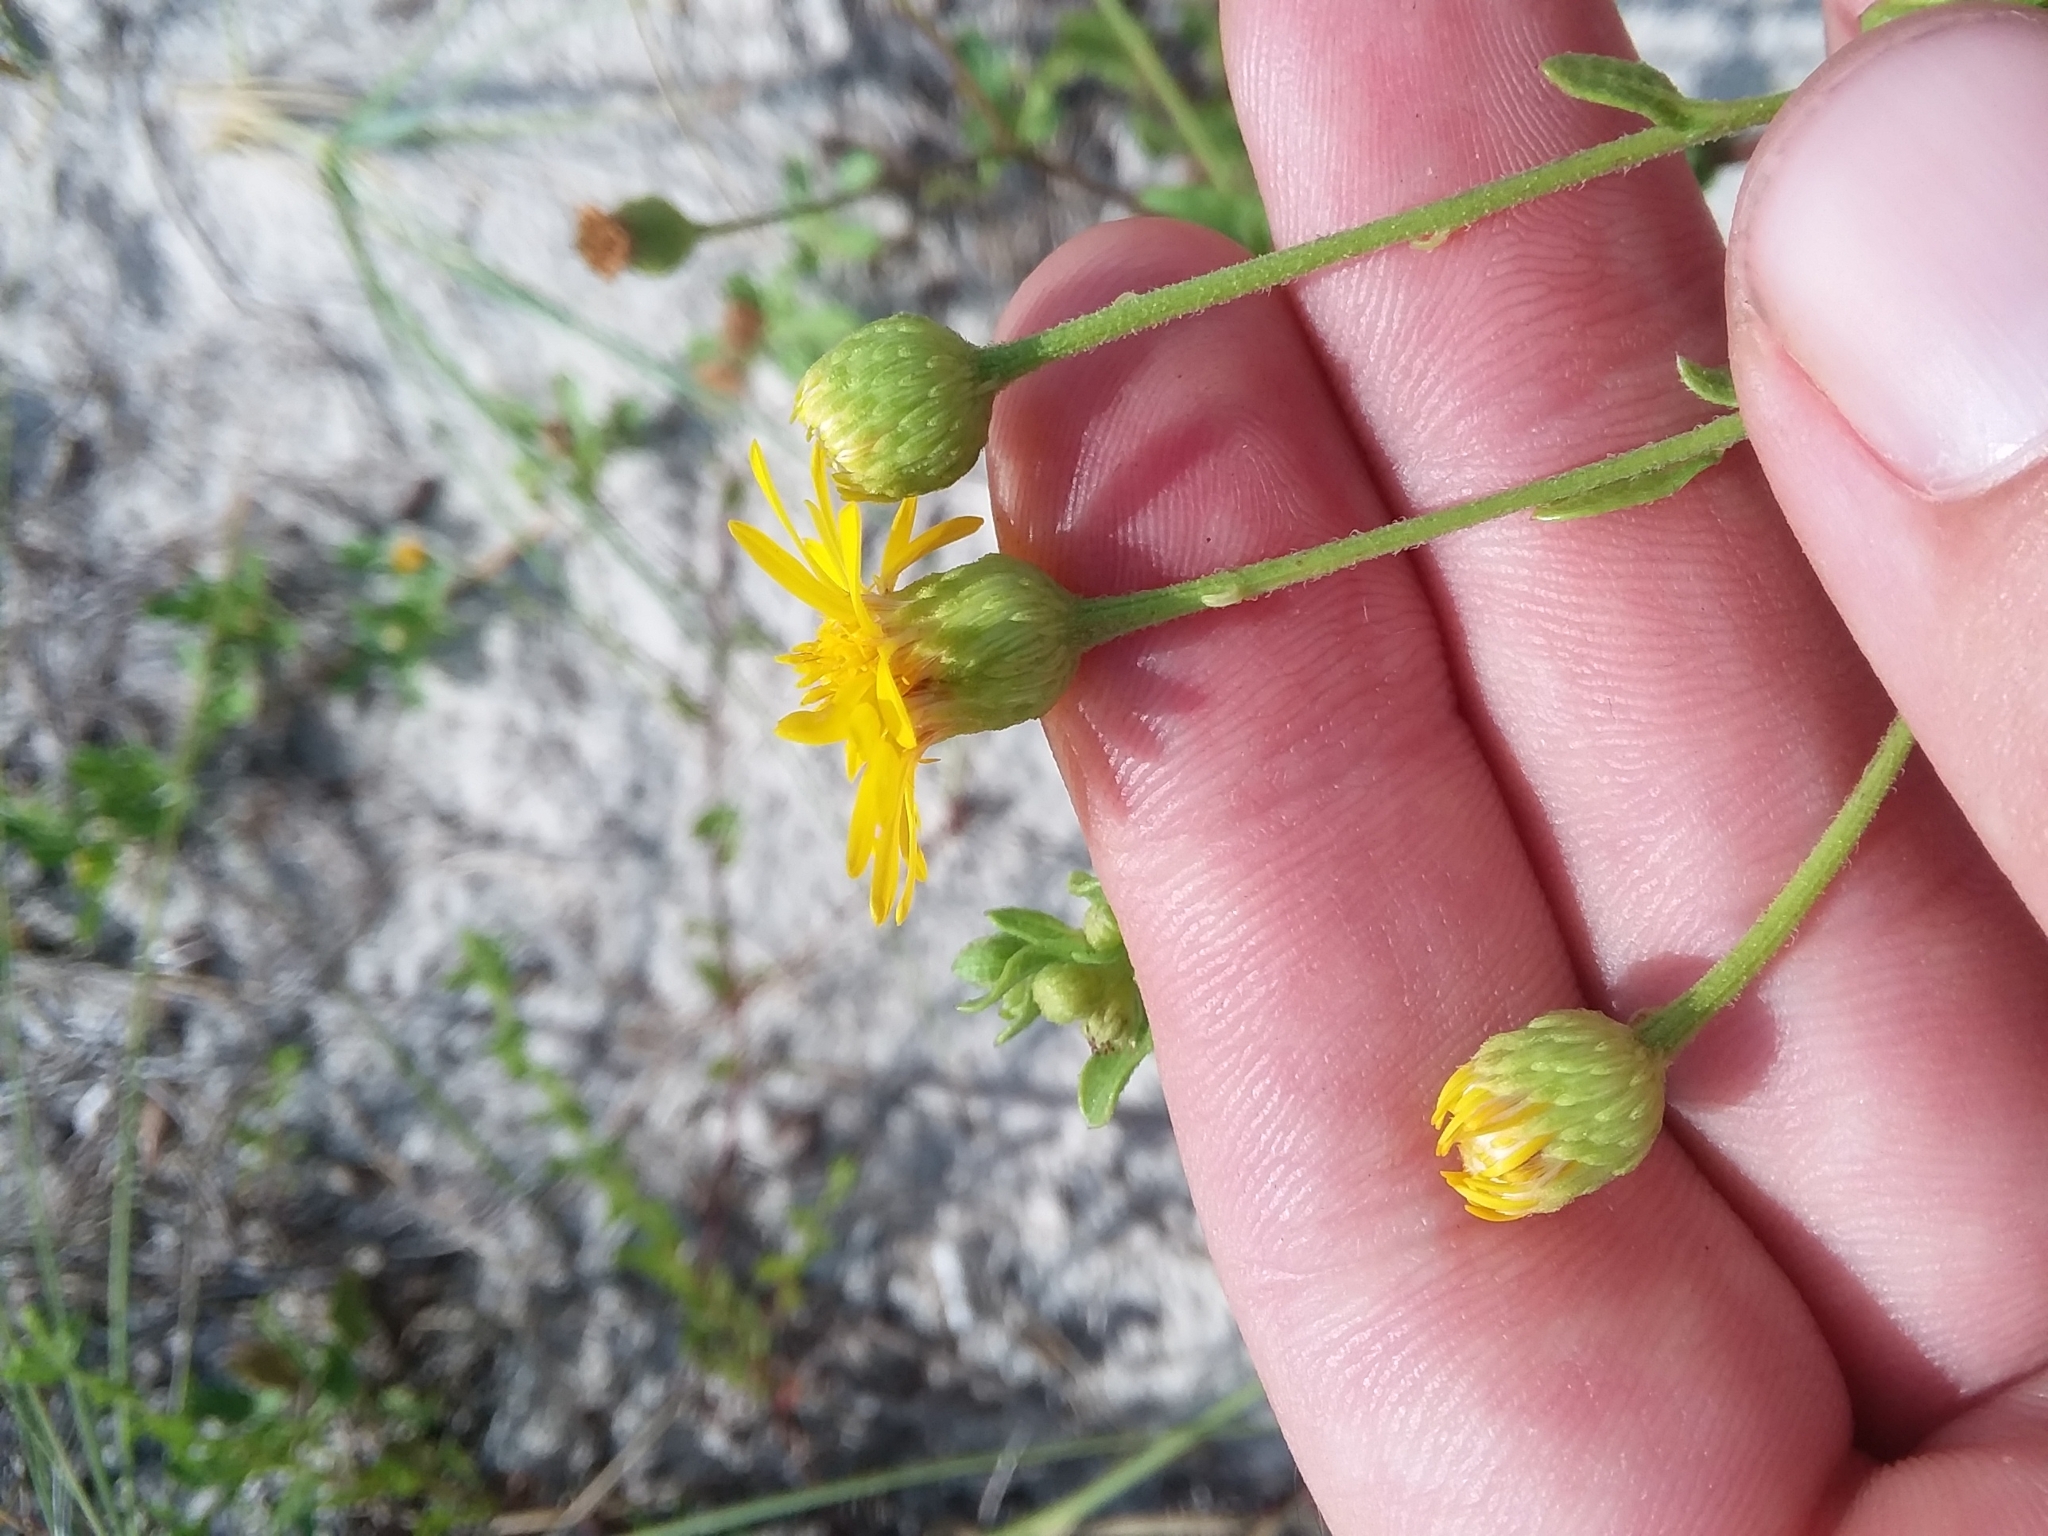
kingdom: Plantae
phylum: Tracheophyta
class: Magnoliopsida
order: Asterales
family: Asteraceae
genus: Heterotheca
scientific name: Heterotheca subaxillaris
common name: Camphorweed
